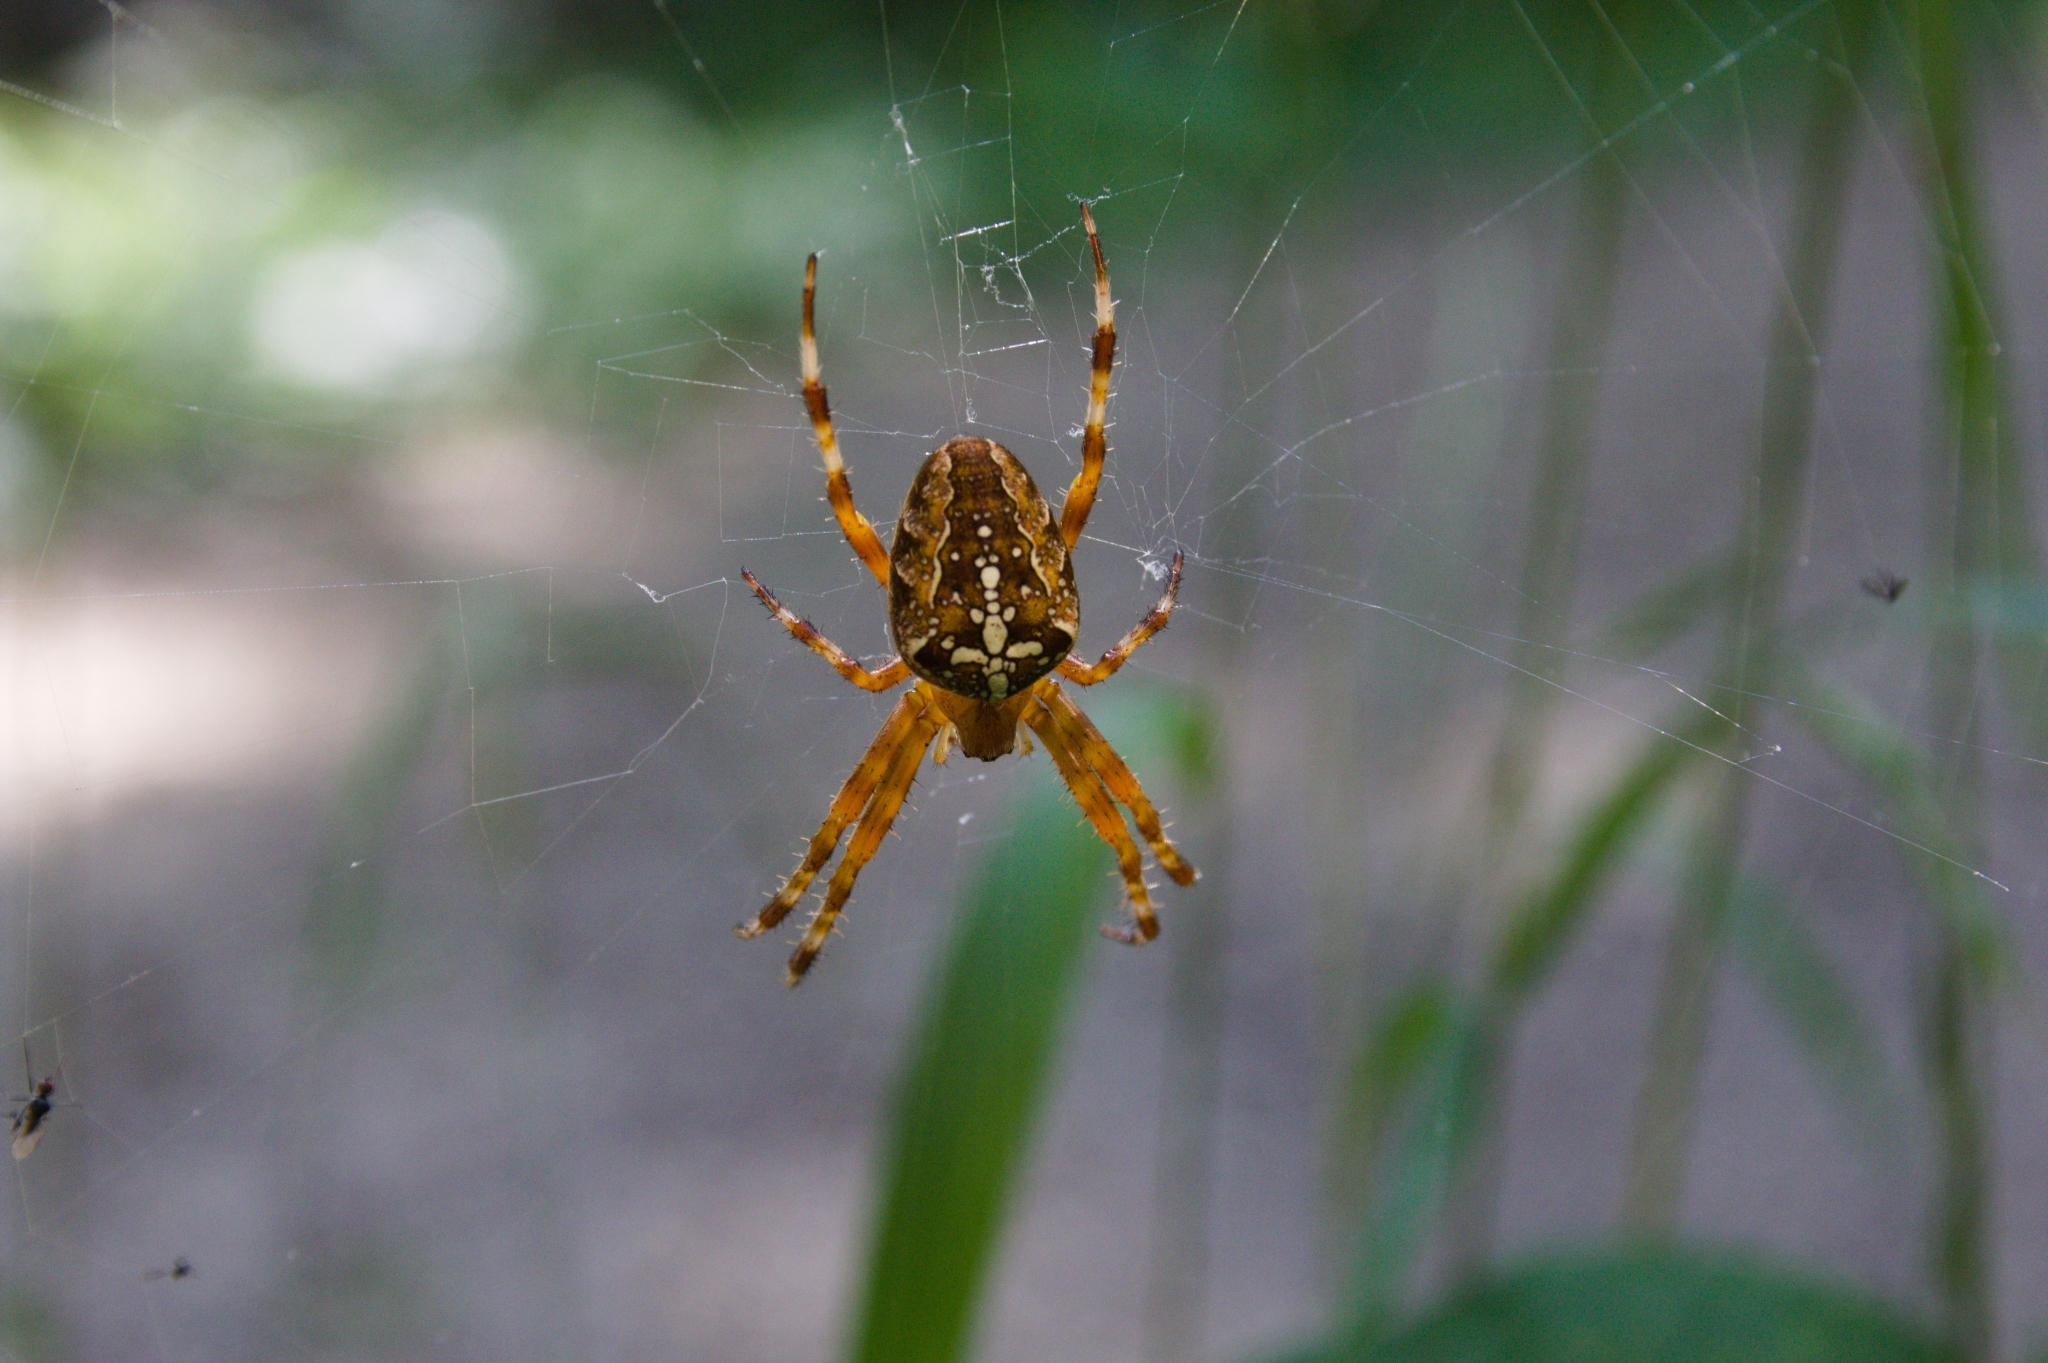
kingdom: Animalia
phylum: Arthropoda
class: Arachnida
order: Araneae
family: Araneidae
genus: Araneus
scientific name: Araneus diadematus
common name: Cross orbweaver
